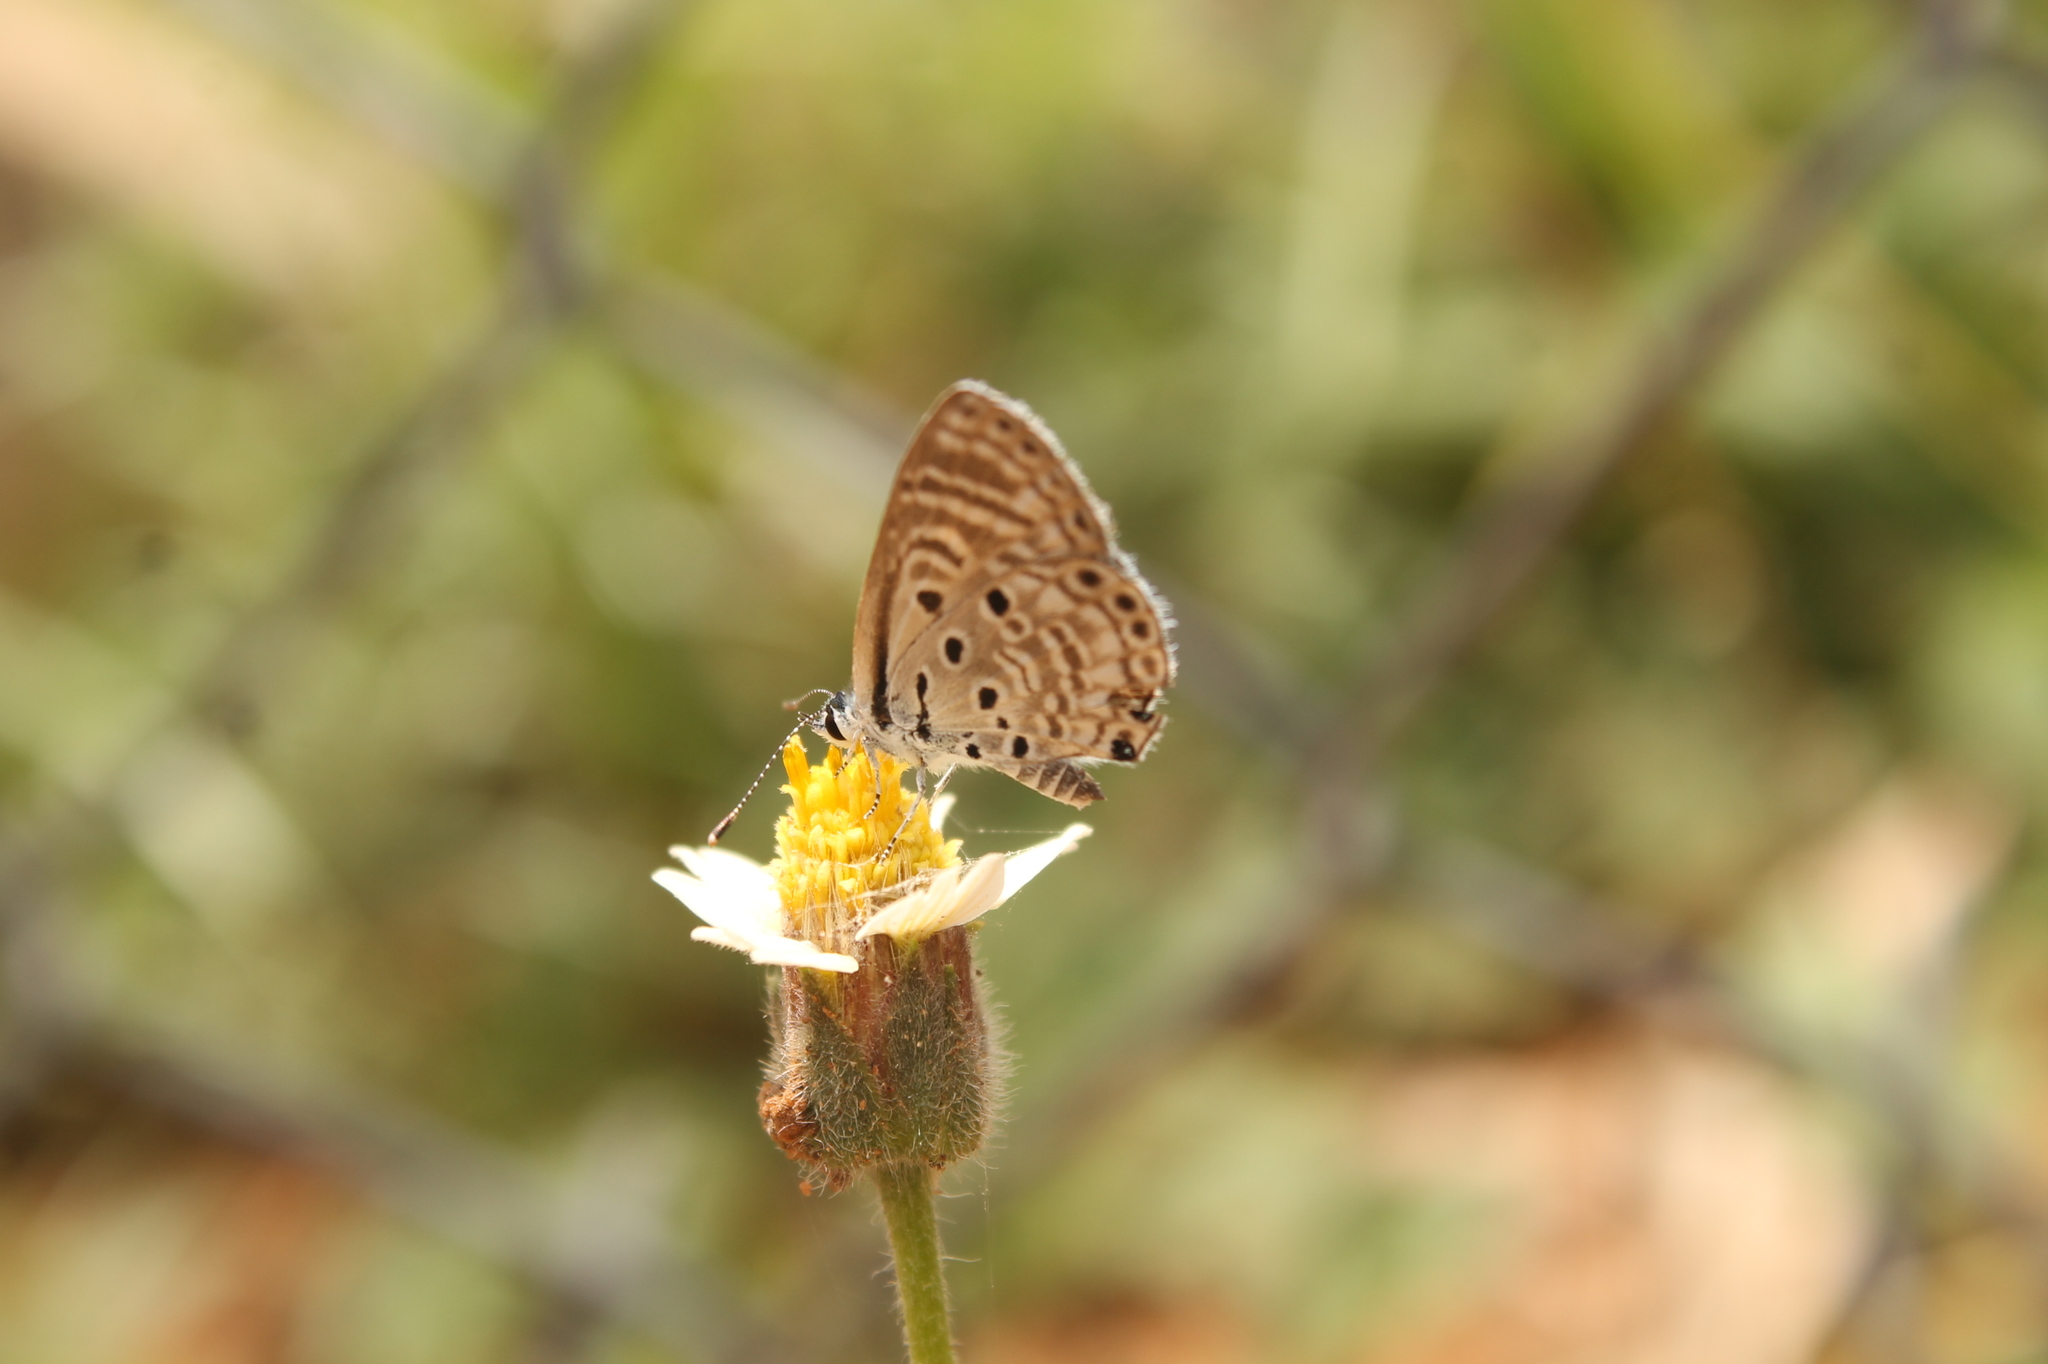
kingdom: Animalia
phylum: Arthropoda
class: Insecta
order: Lepidoptera
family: Lycaenidae
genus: Azanus
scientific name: Azanus jesous
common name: African babul blue
